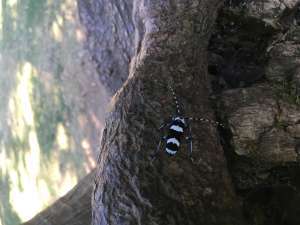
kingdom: Animalia
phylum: Arthropoda
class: Insecta
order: Coleoptera
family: Cerambycidae
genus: Rosalia
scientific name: Rosalia funebris
